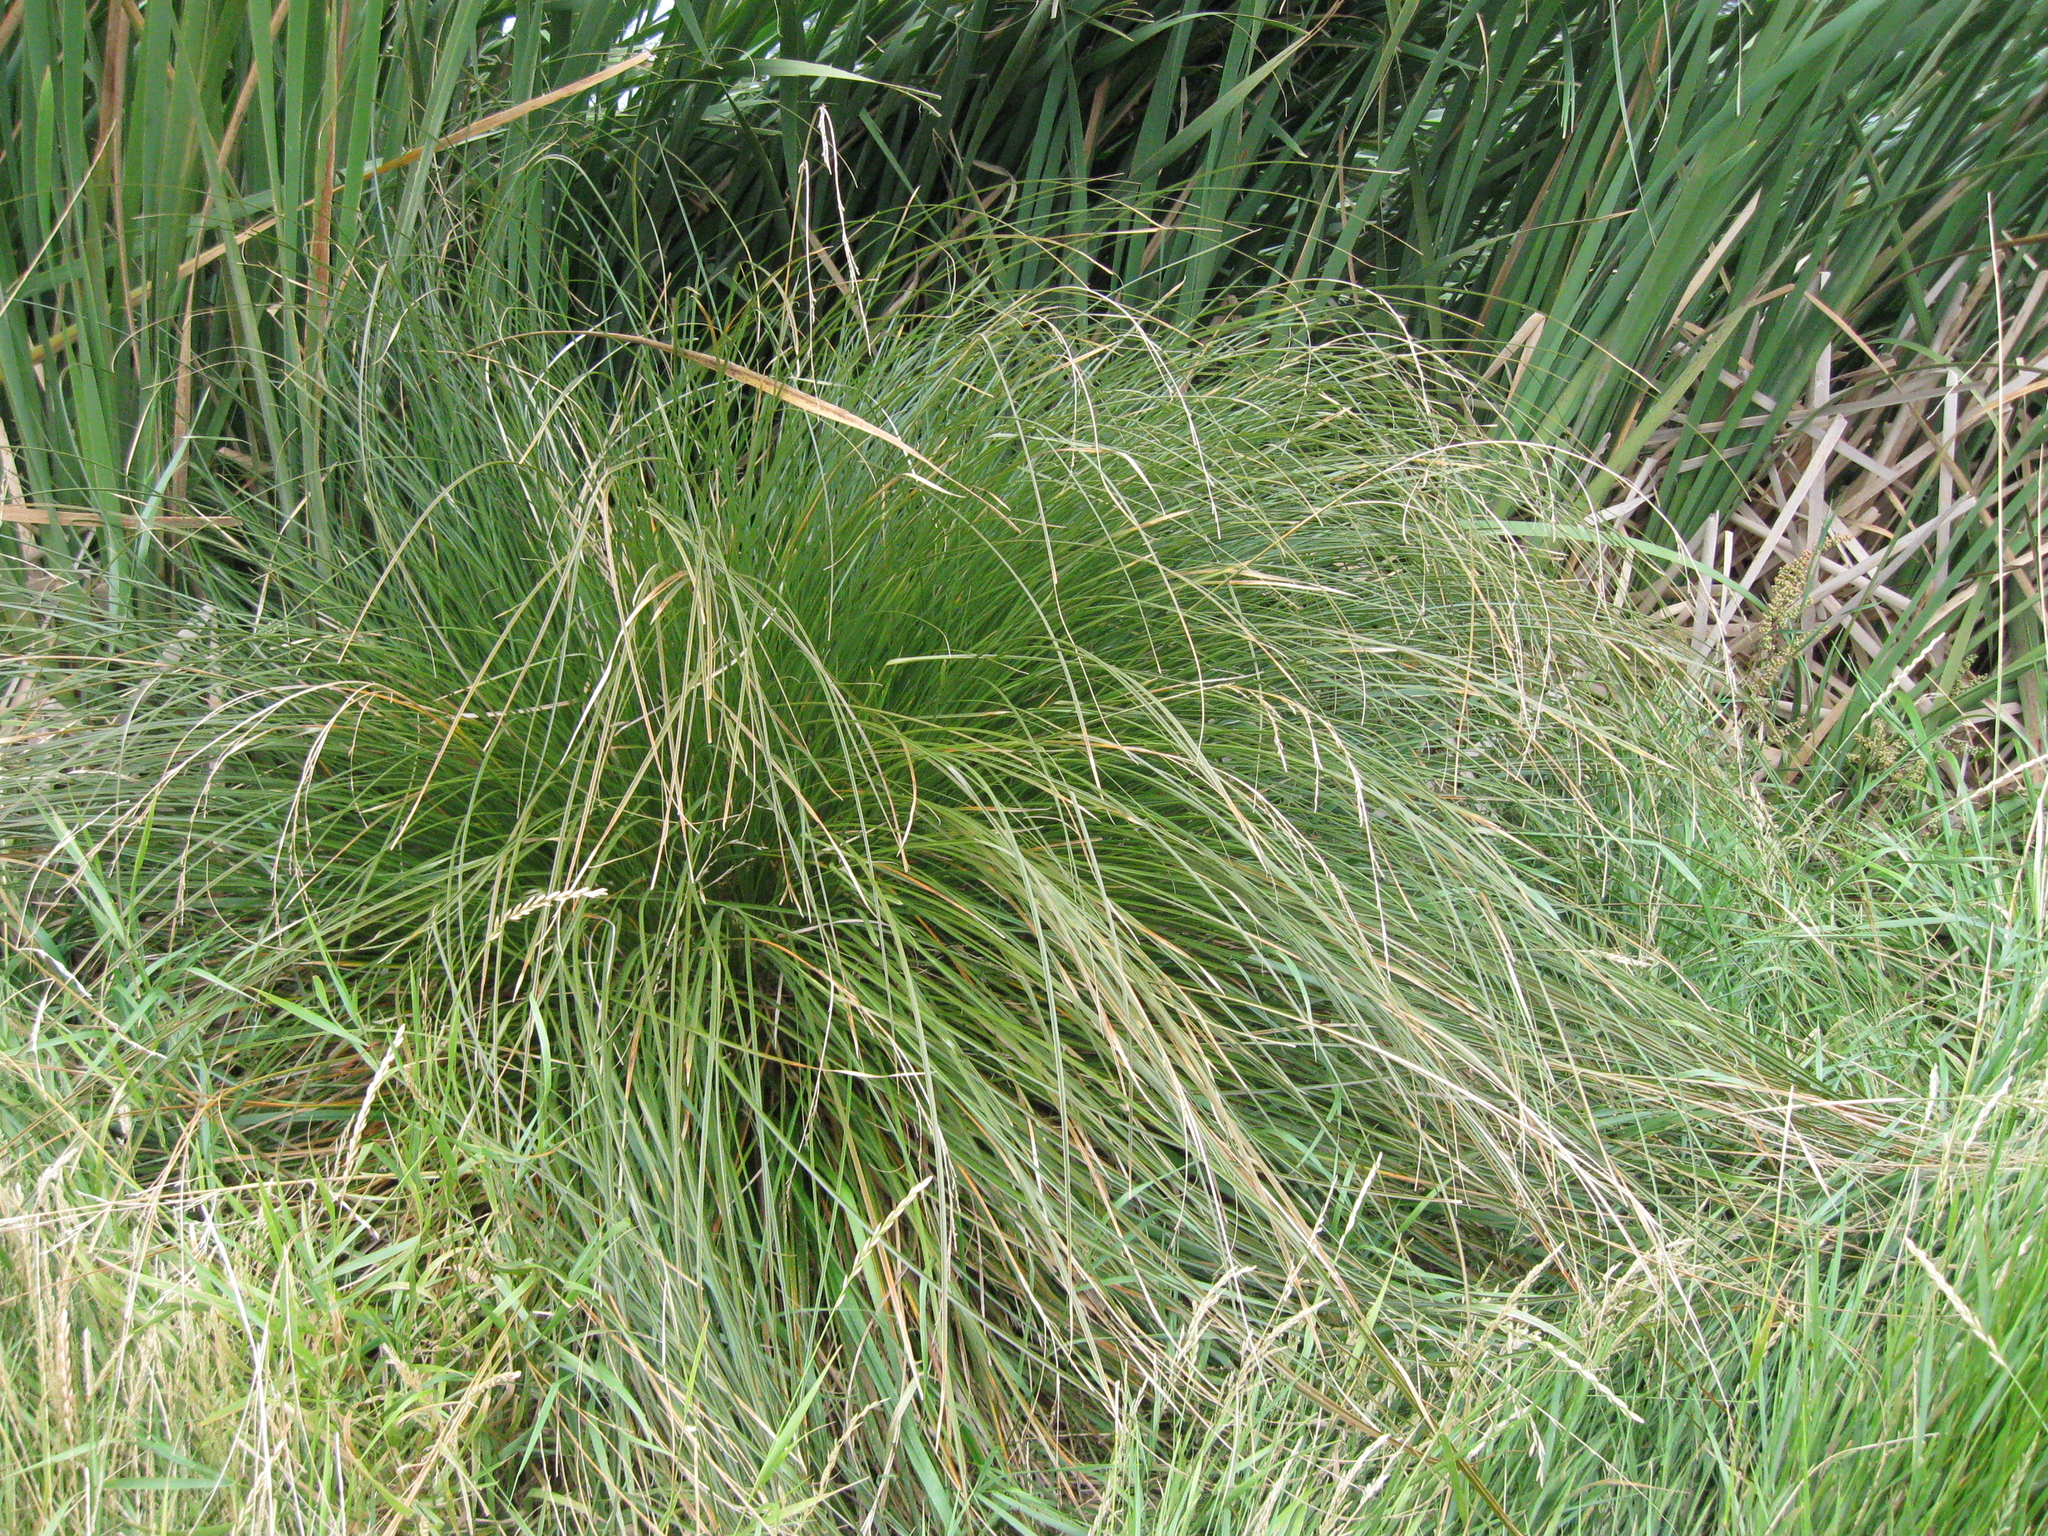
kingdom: Plantae
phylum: Tracheophyta
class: Liliopsida
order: Poales
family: Cyperaceae
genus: Carex
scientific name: Carex secta
